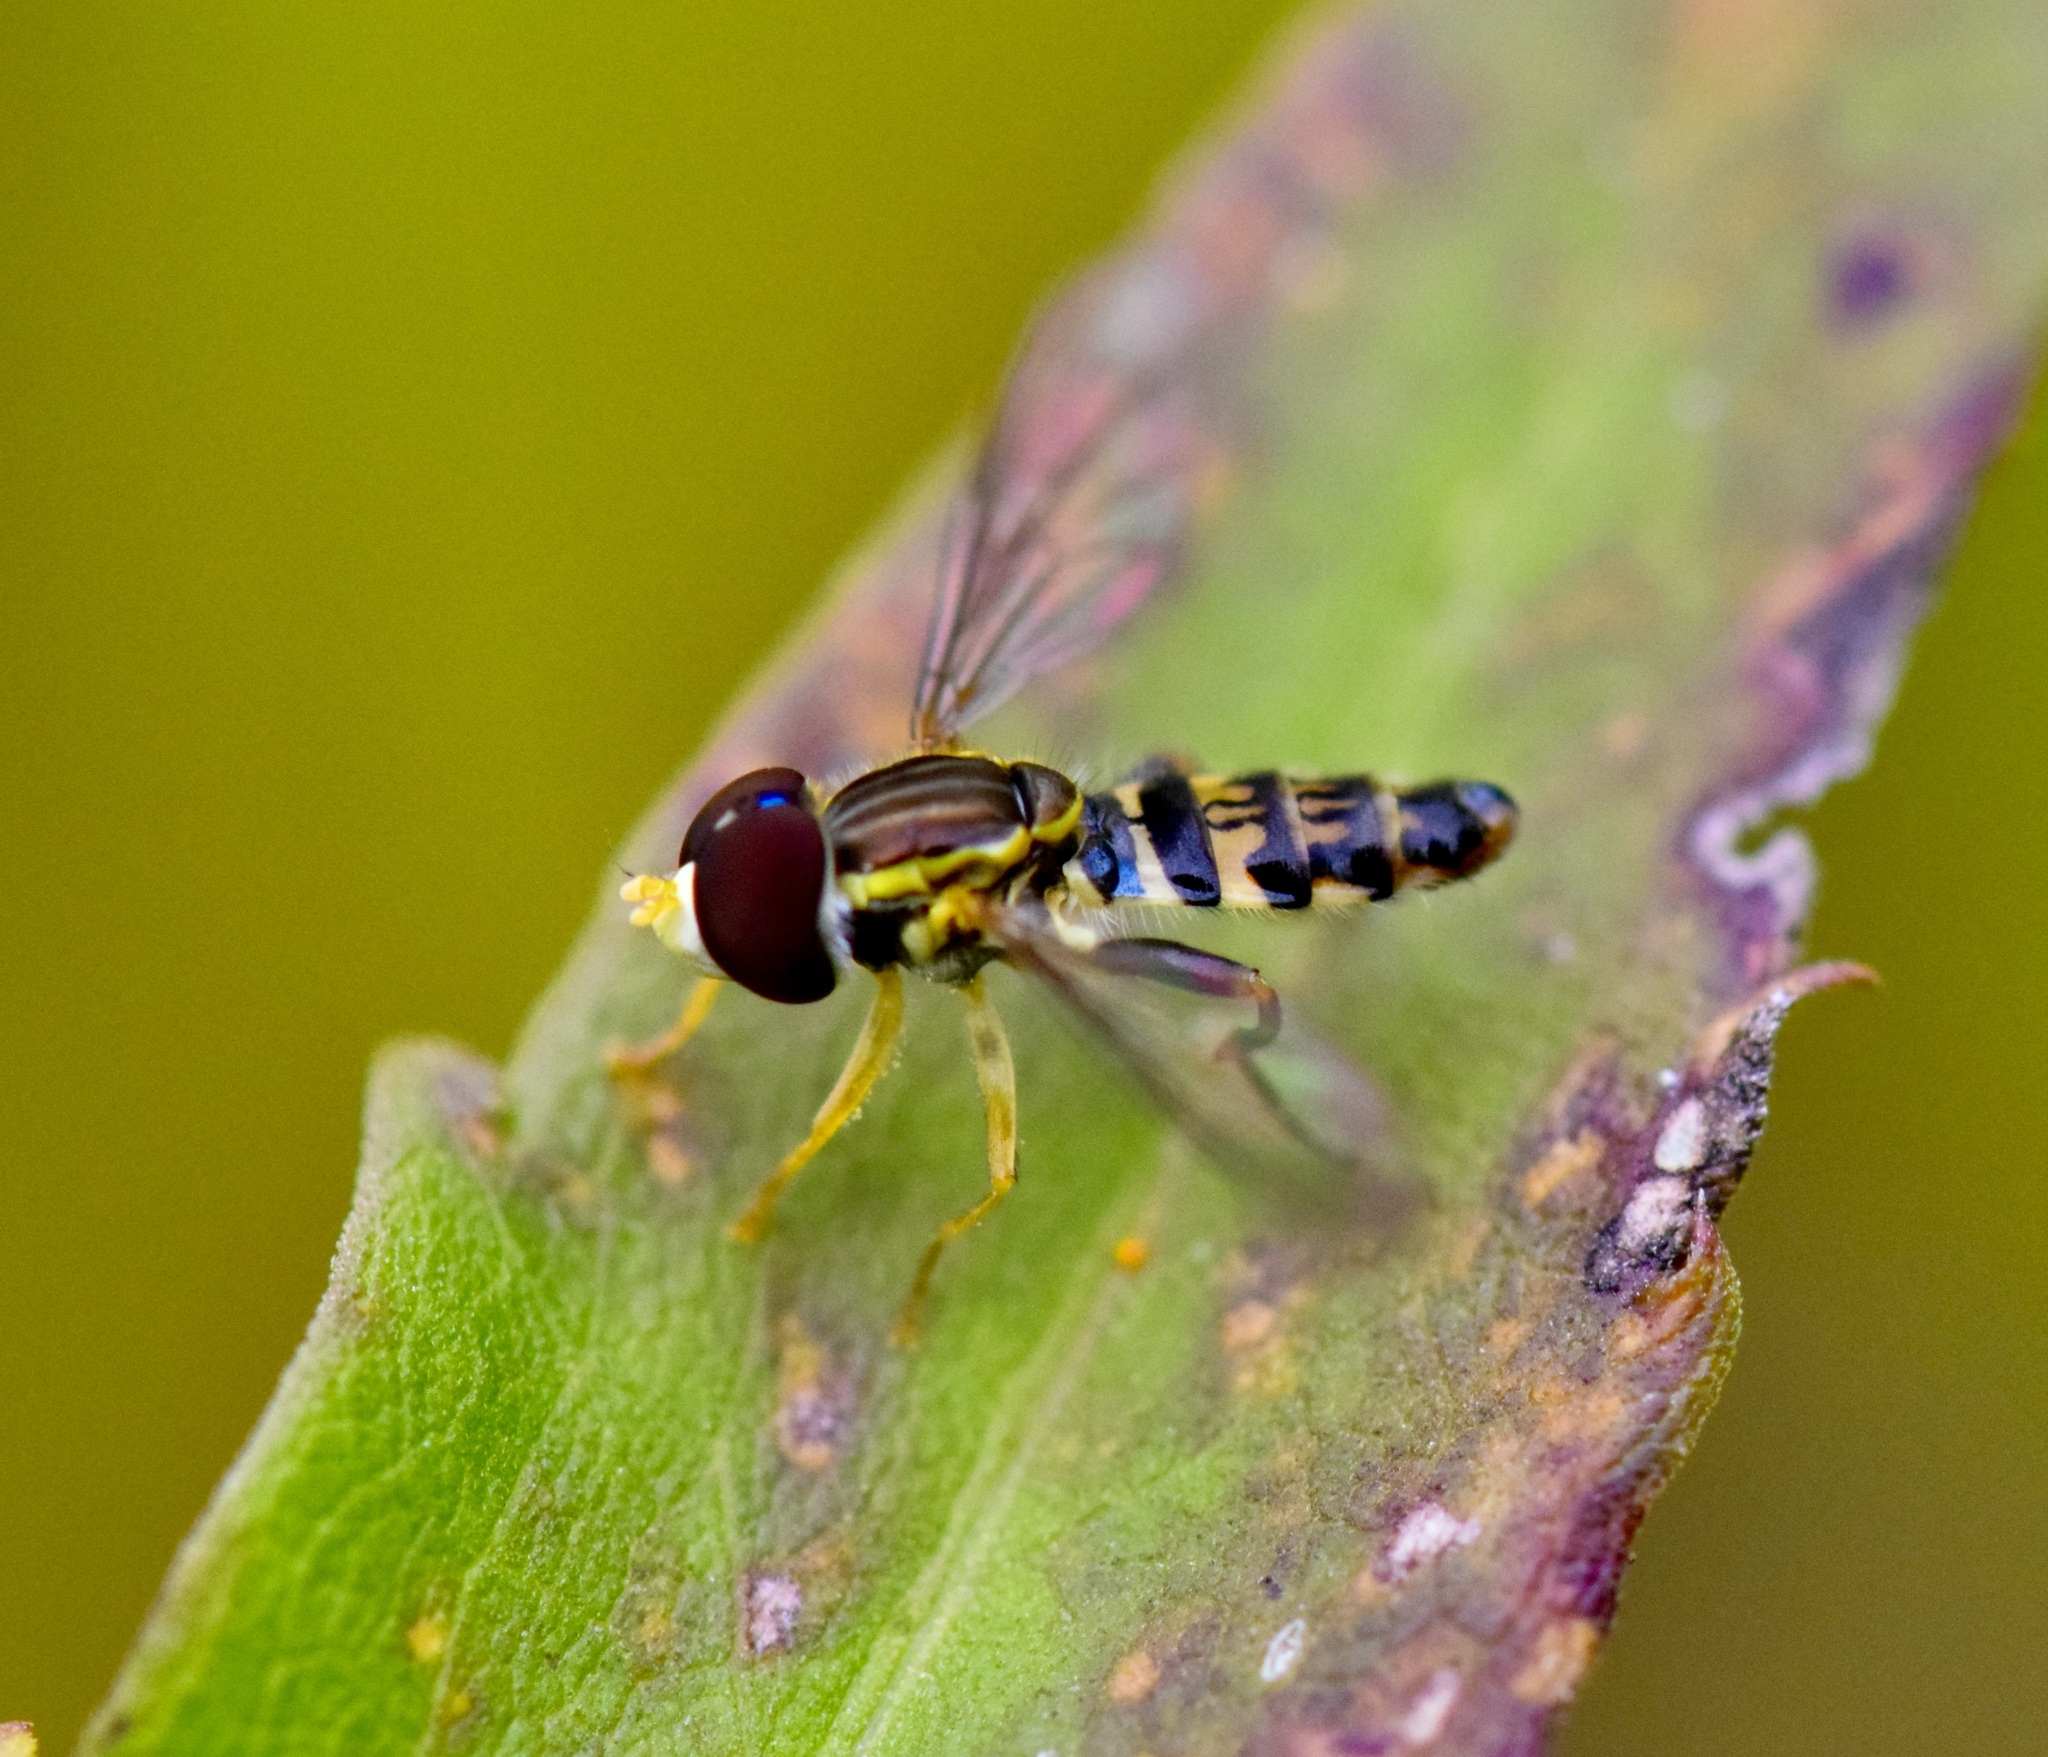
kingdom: Animalia
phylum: Arthropoda
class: Insecta
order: Diptera
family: Syrphidae
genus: Toxomerus
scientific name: Toxomerus geminatus
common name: Eastern calligrapher
